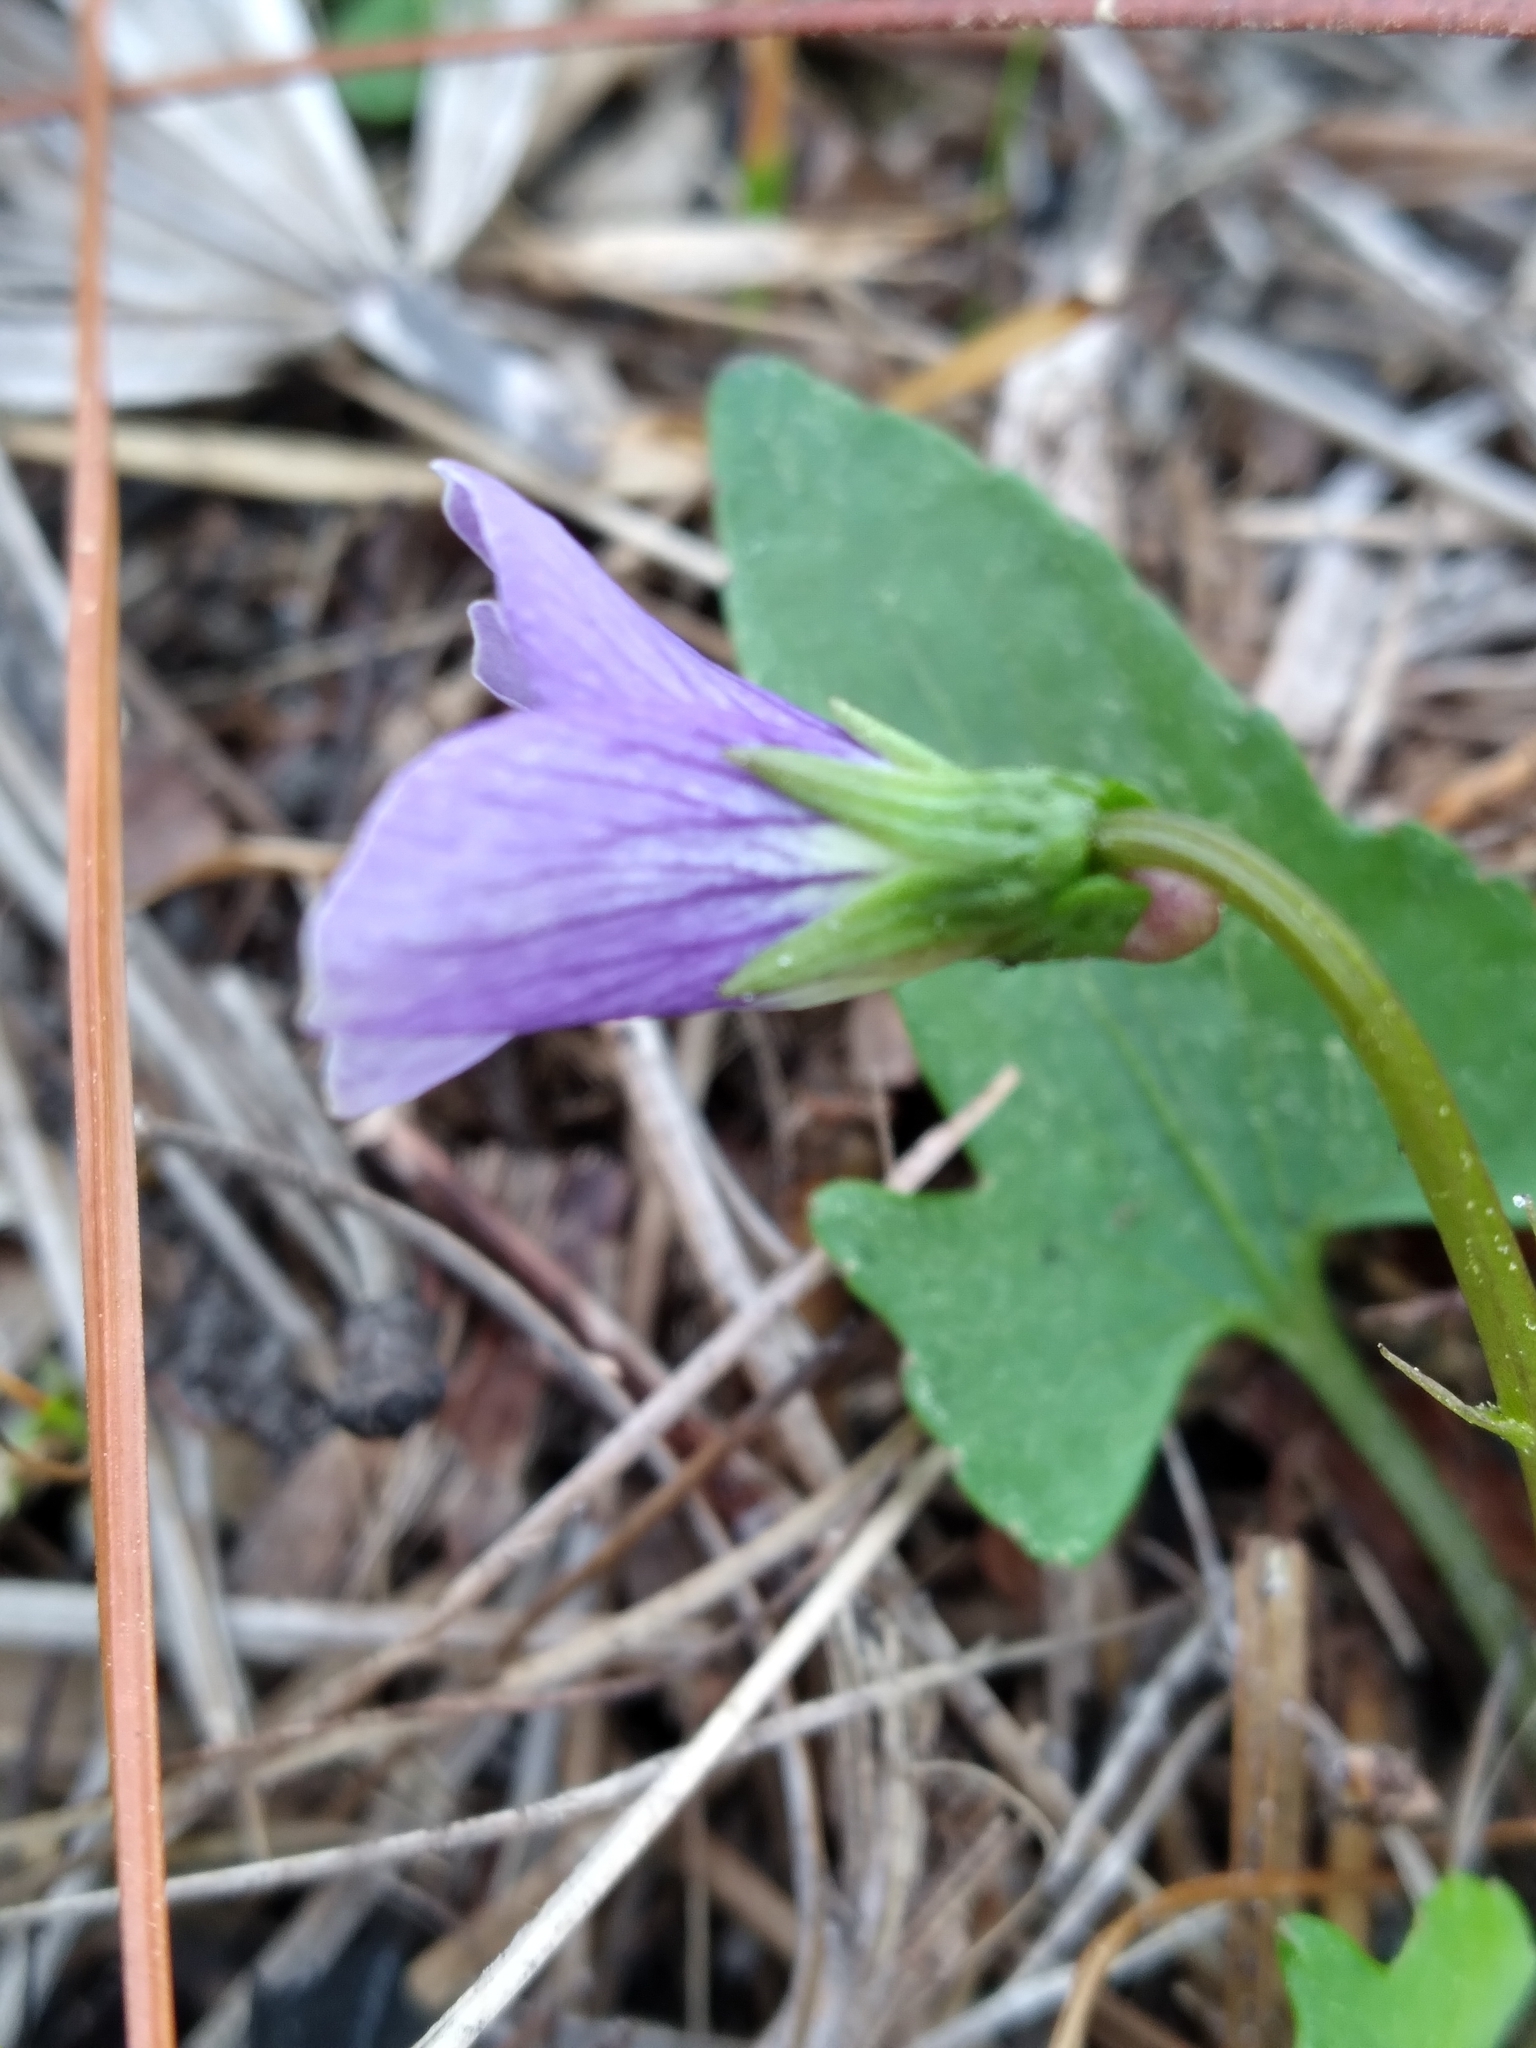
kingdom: Plantae
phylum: Tracheophyta
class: Magnoliopsida
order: Malpighiales
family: Violaceae
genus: Viola
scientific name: Viola septemloba
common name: Southern coast violet
